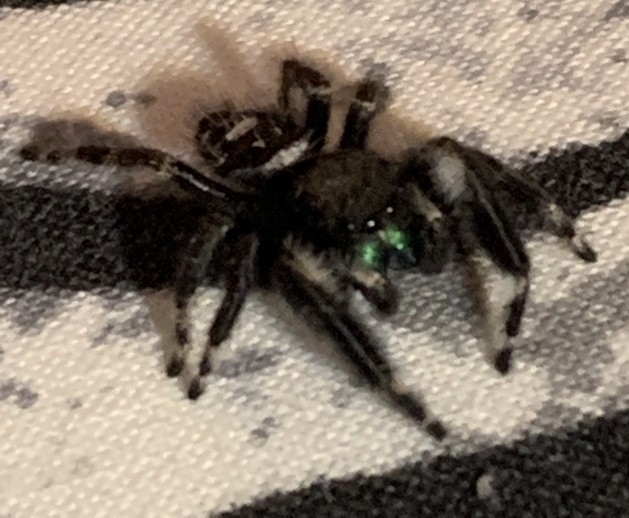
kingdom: Animalia
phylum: Arthropoda
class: Arachnida
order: Araneae
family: Salticidae
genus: Phidippus
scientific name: Phidippus audax
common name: Bold jumper
